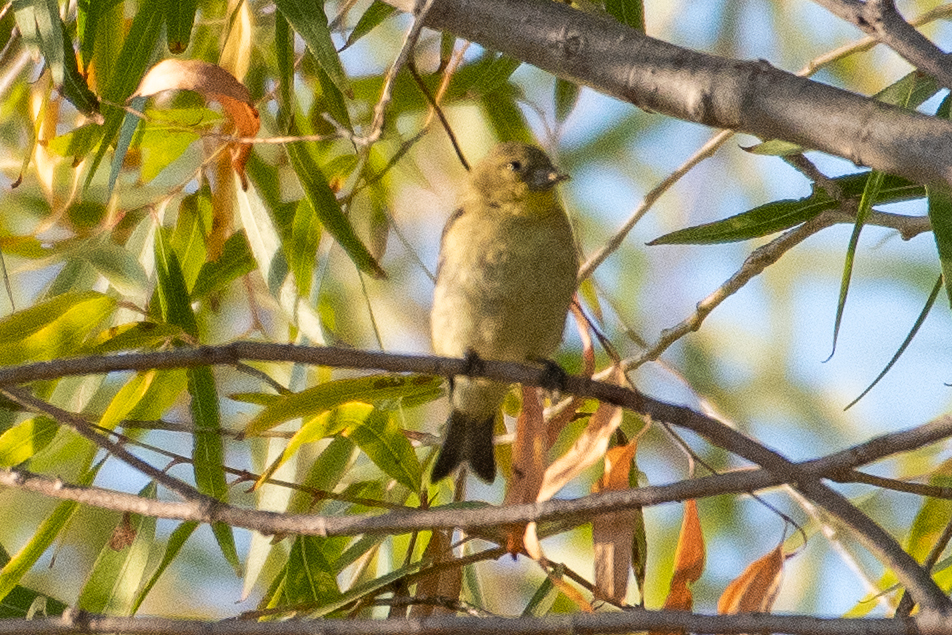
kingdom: Animalia
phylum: Chordata
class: Aves
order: Passeriformes
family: Fringillidae
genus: Spinus
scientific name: Spinus psaltria
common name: Lesser goldfinch
